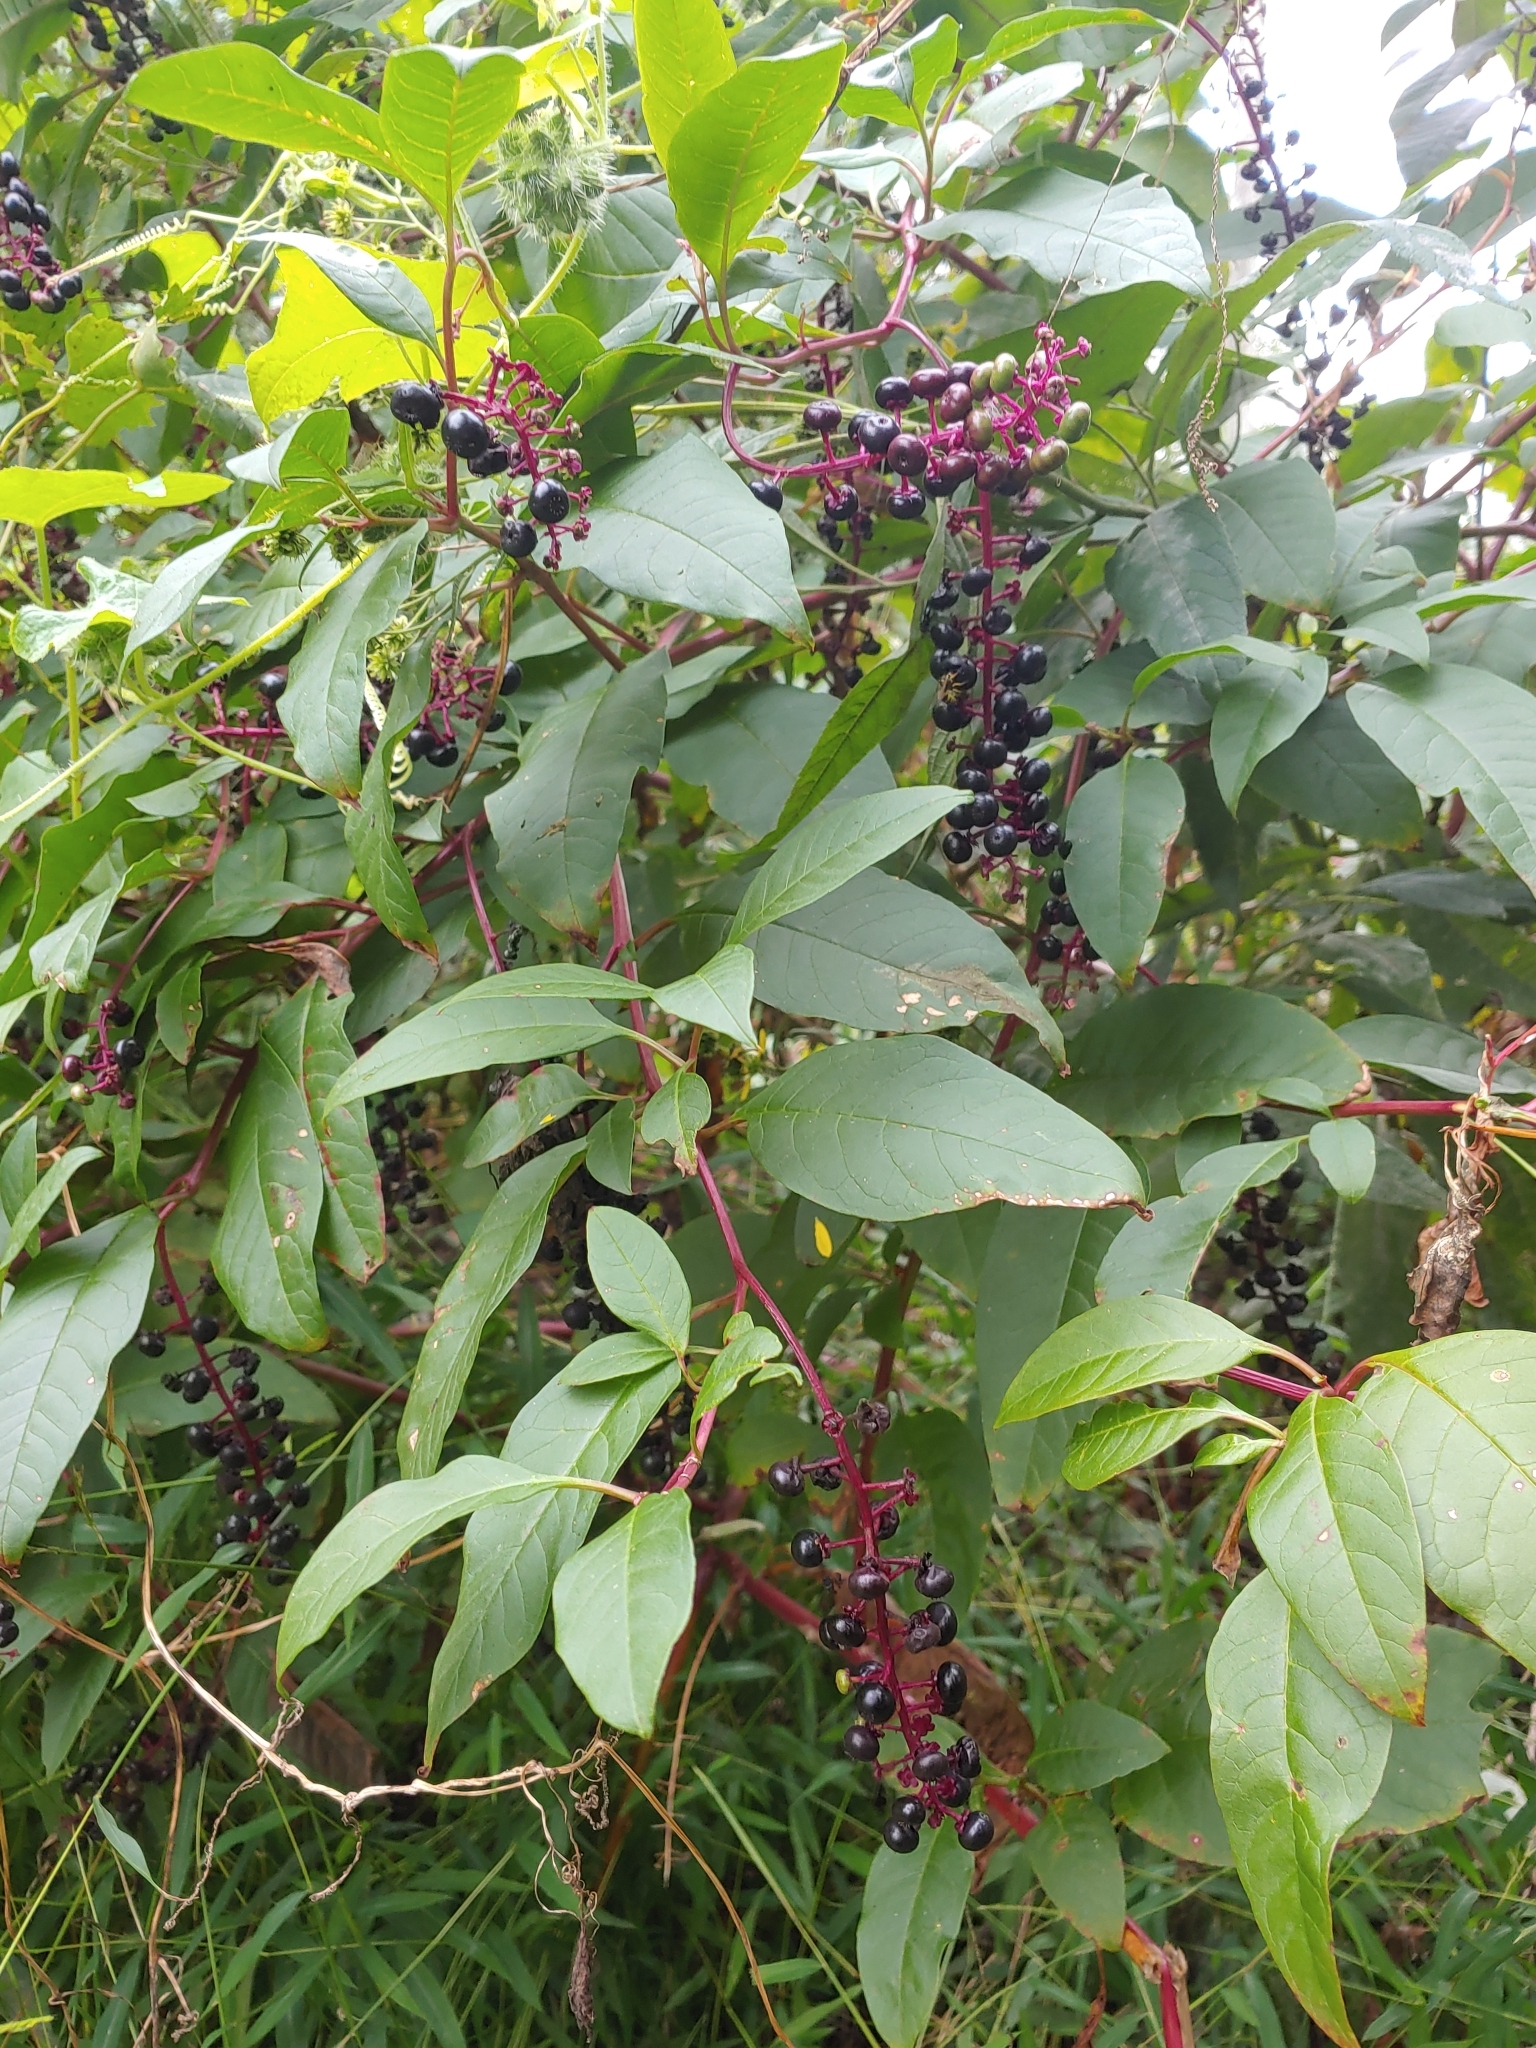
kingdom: Plantae
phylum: Tracheophyta
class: Magnoliopsida
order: Caryophyllales
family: Phytolaccaceae
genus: Phytolacca
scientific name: Phytolacca americana
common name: American pokeweed
